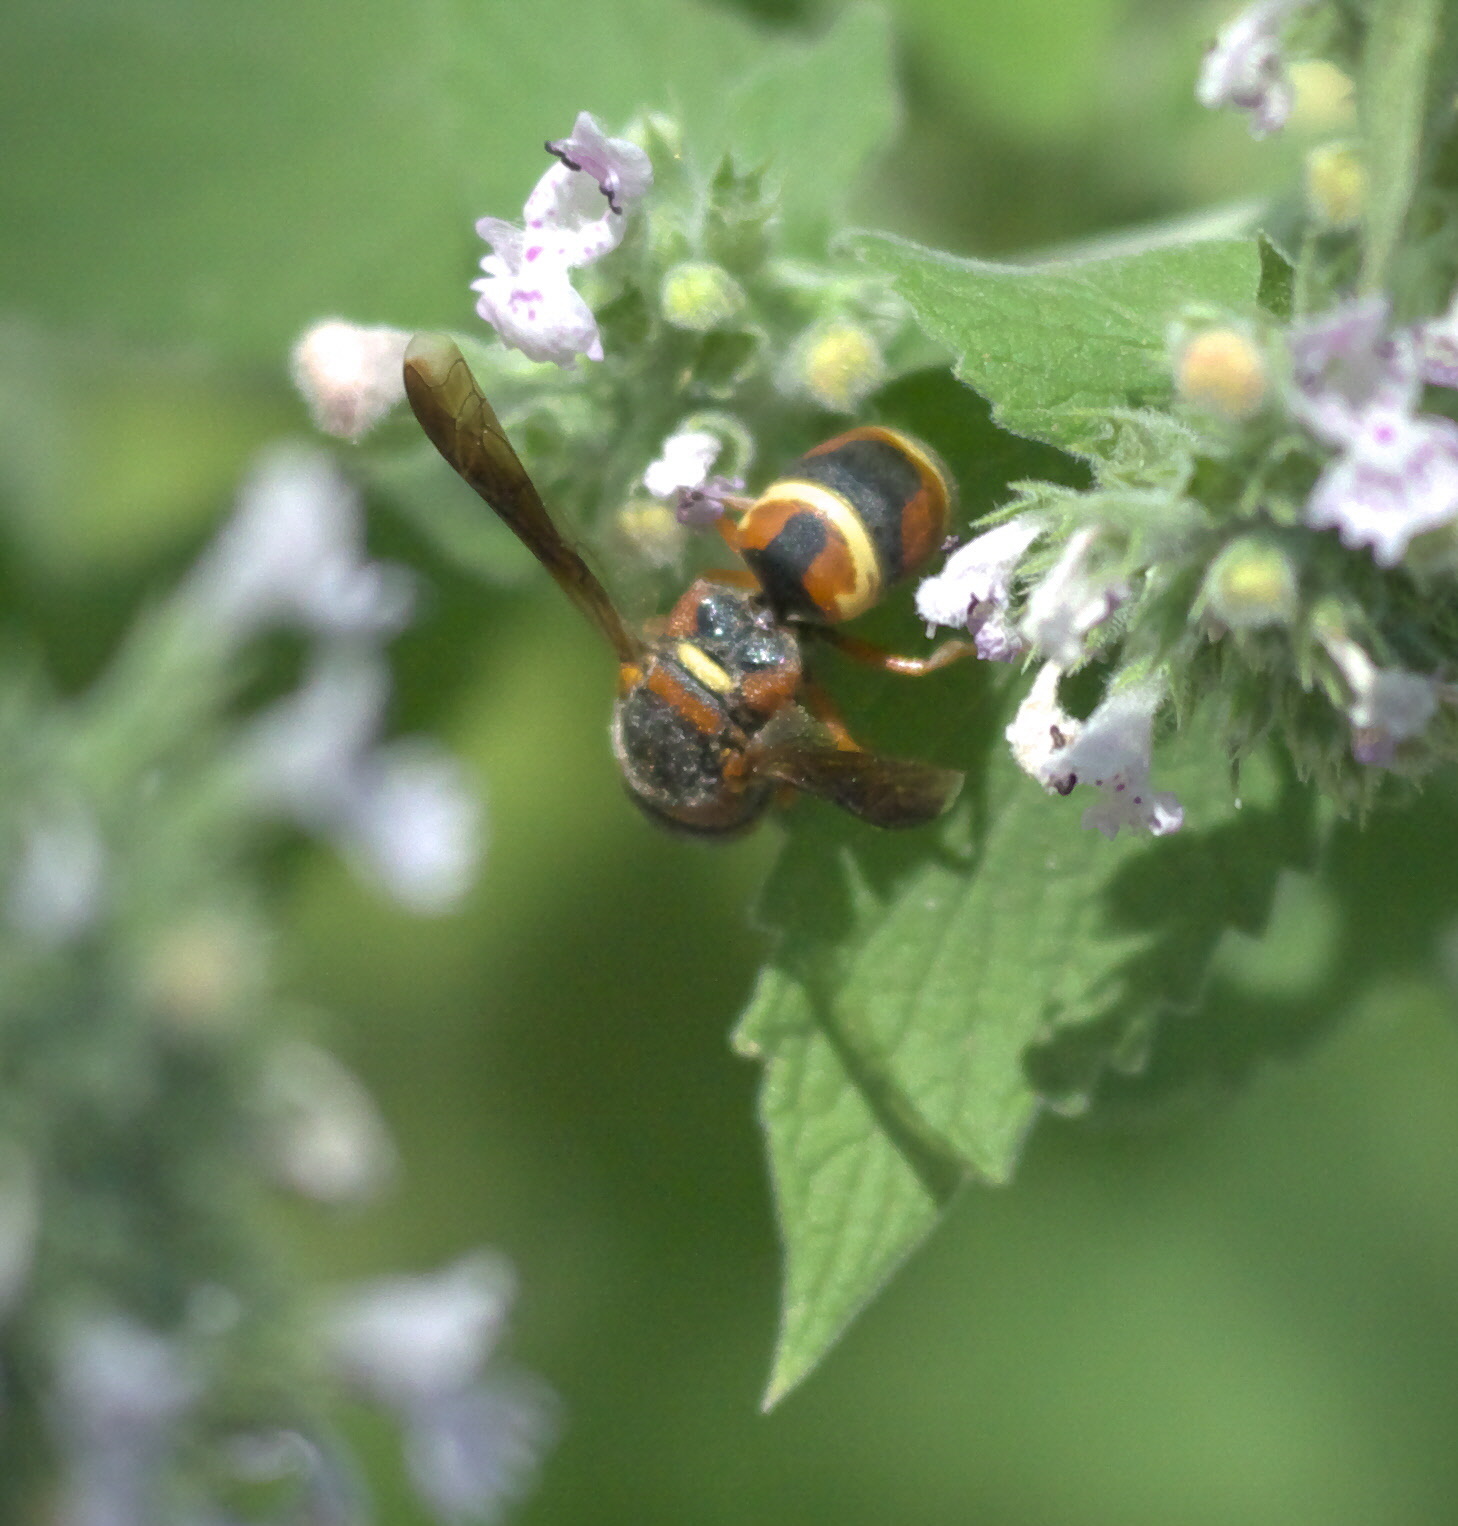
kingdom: Animalia
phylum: Arthropoda
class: Insecta
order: Hymenoptera
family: Eumenidae
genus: Euodynerus
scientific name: Euodynerus hidalgo
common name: Wasp
